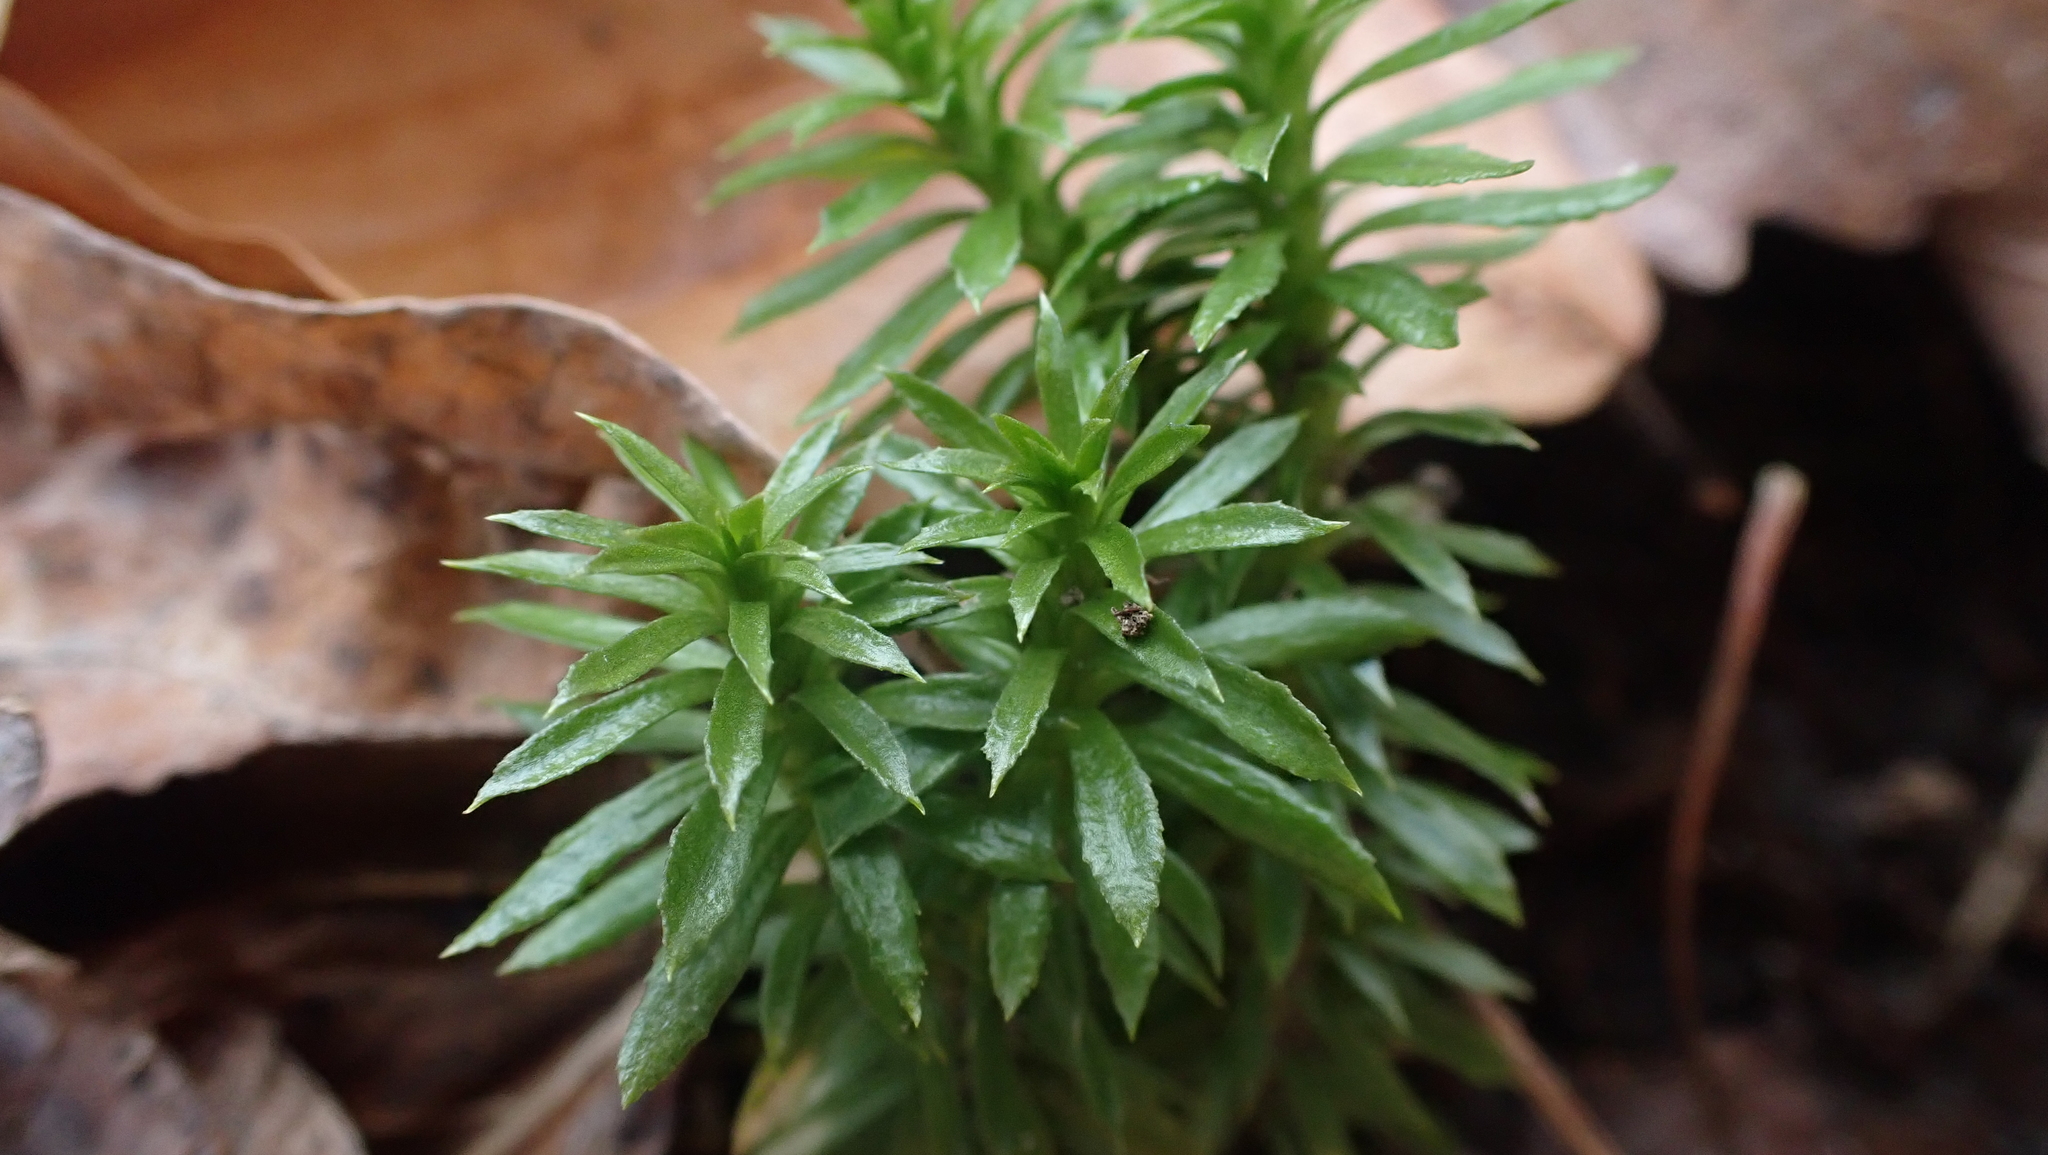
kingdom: Plantae
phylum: Tracheophyta
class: Lycopodiopsida
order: Lycopodiales
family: Lycopodiaceae
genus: Huperzia
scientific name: Huperzia lucidula
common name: Shining clubmoss
